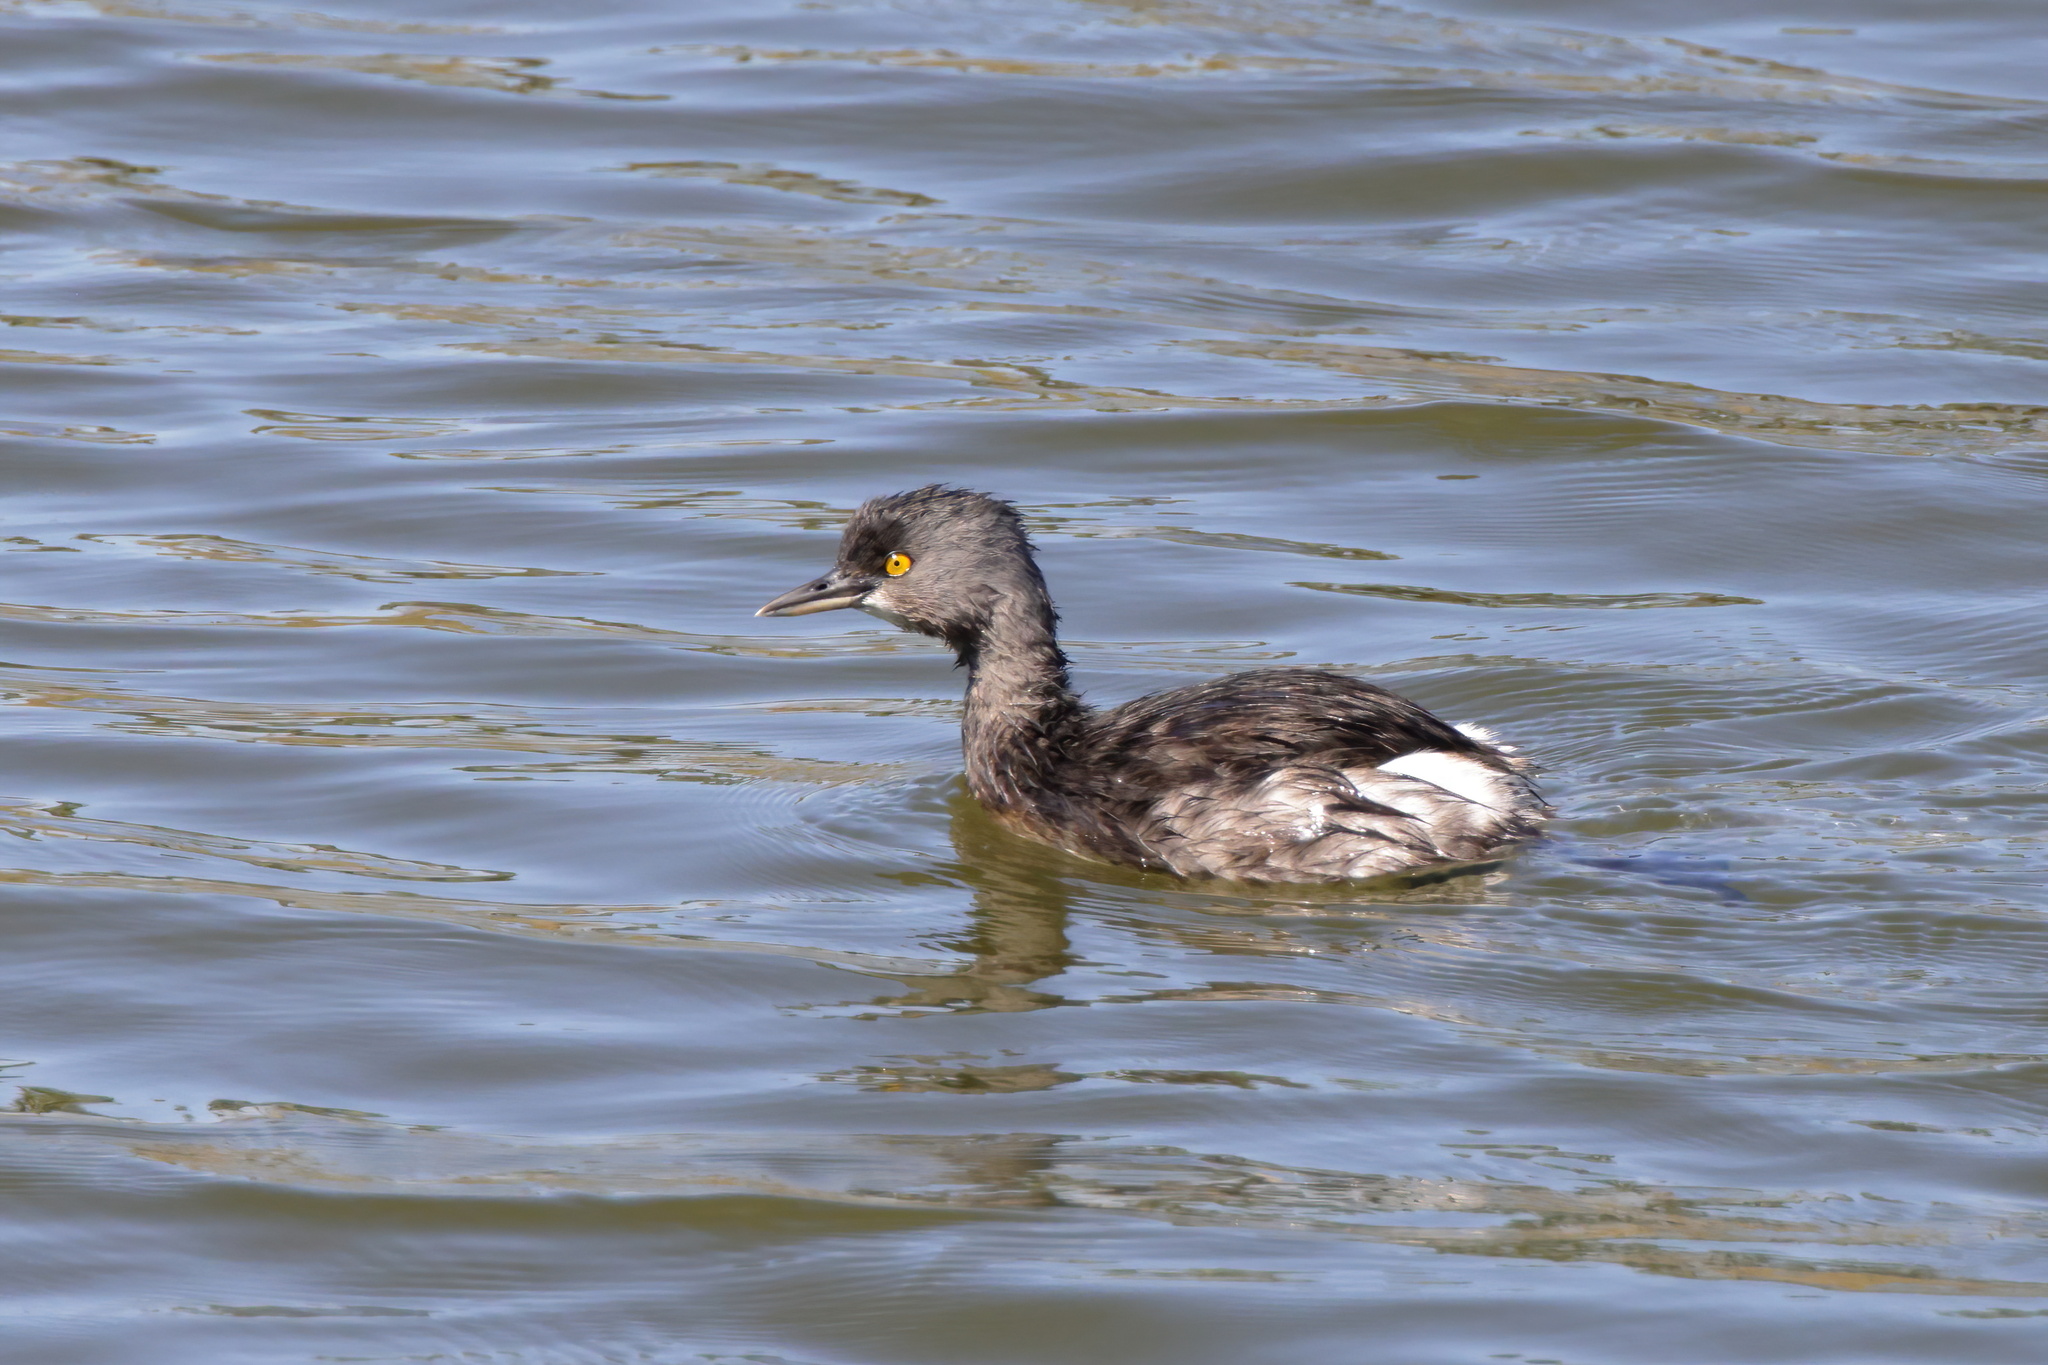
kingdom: Animalia
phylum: Chordata
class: Aves
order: Podicipediformes
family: Podicipedidae
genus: Tachybaptus
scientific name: Tachybaptus dominicus
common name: Least grebe
